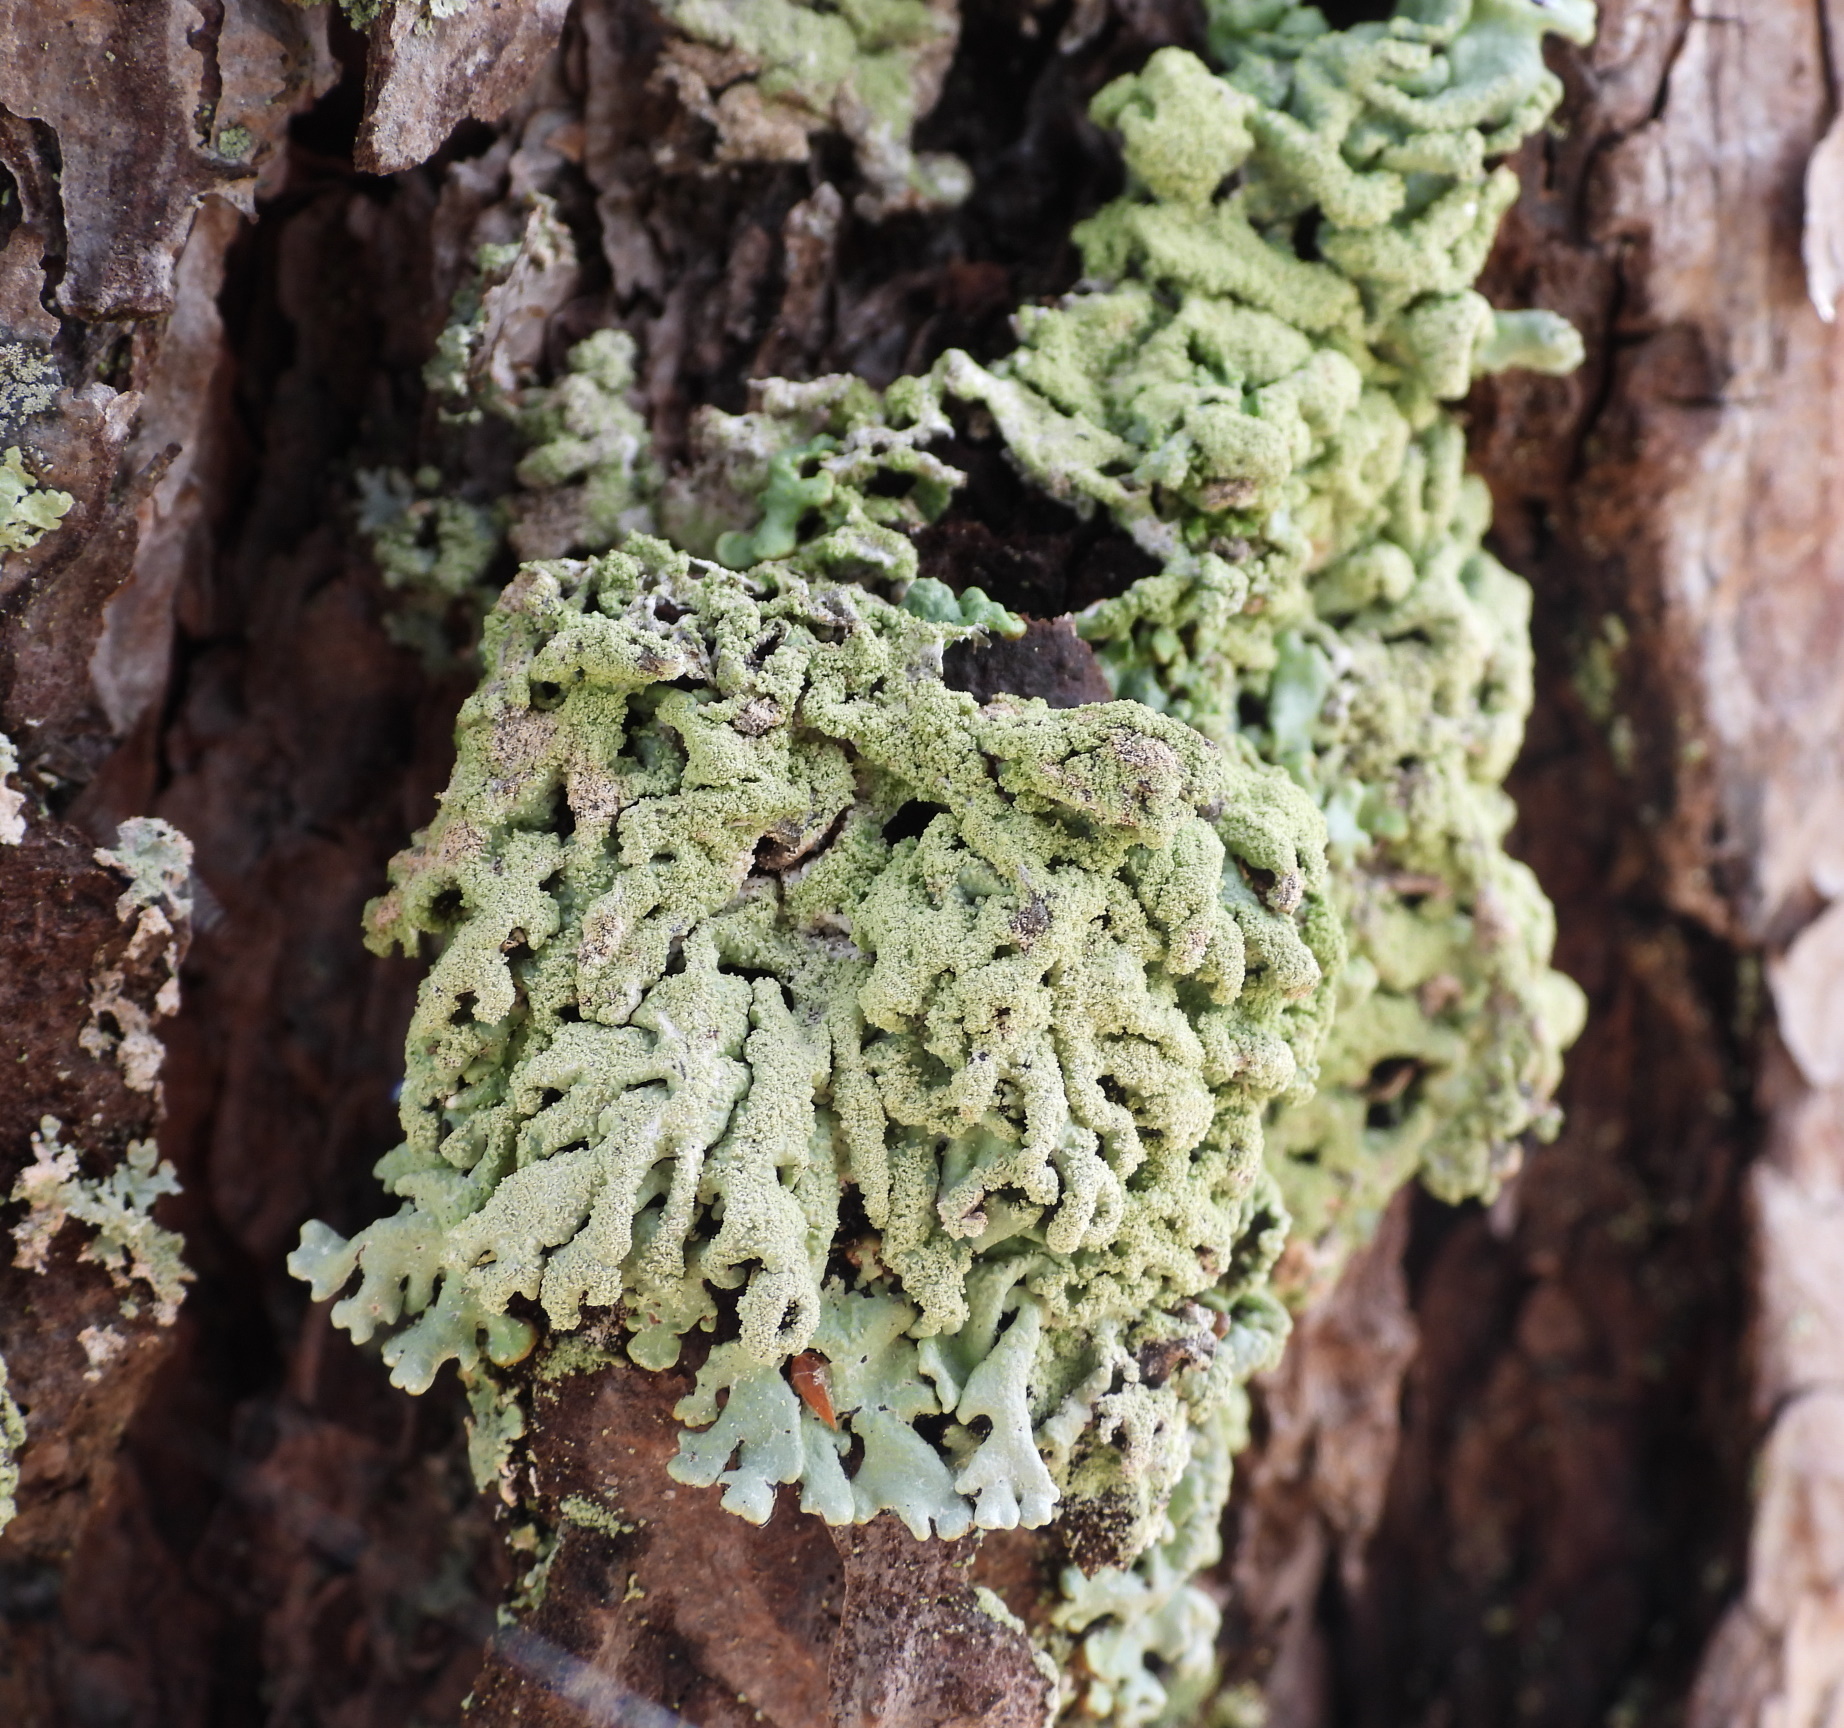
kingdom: Fungi
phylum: Ascomycota
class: Lecanoromycetes
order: Lecanorales
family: Parmeliaceae
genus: Hypogymnia
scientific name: Hypogymnia farinacea
